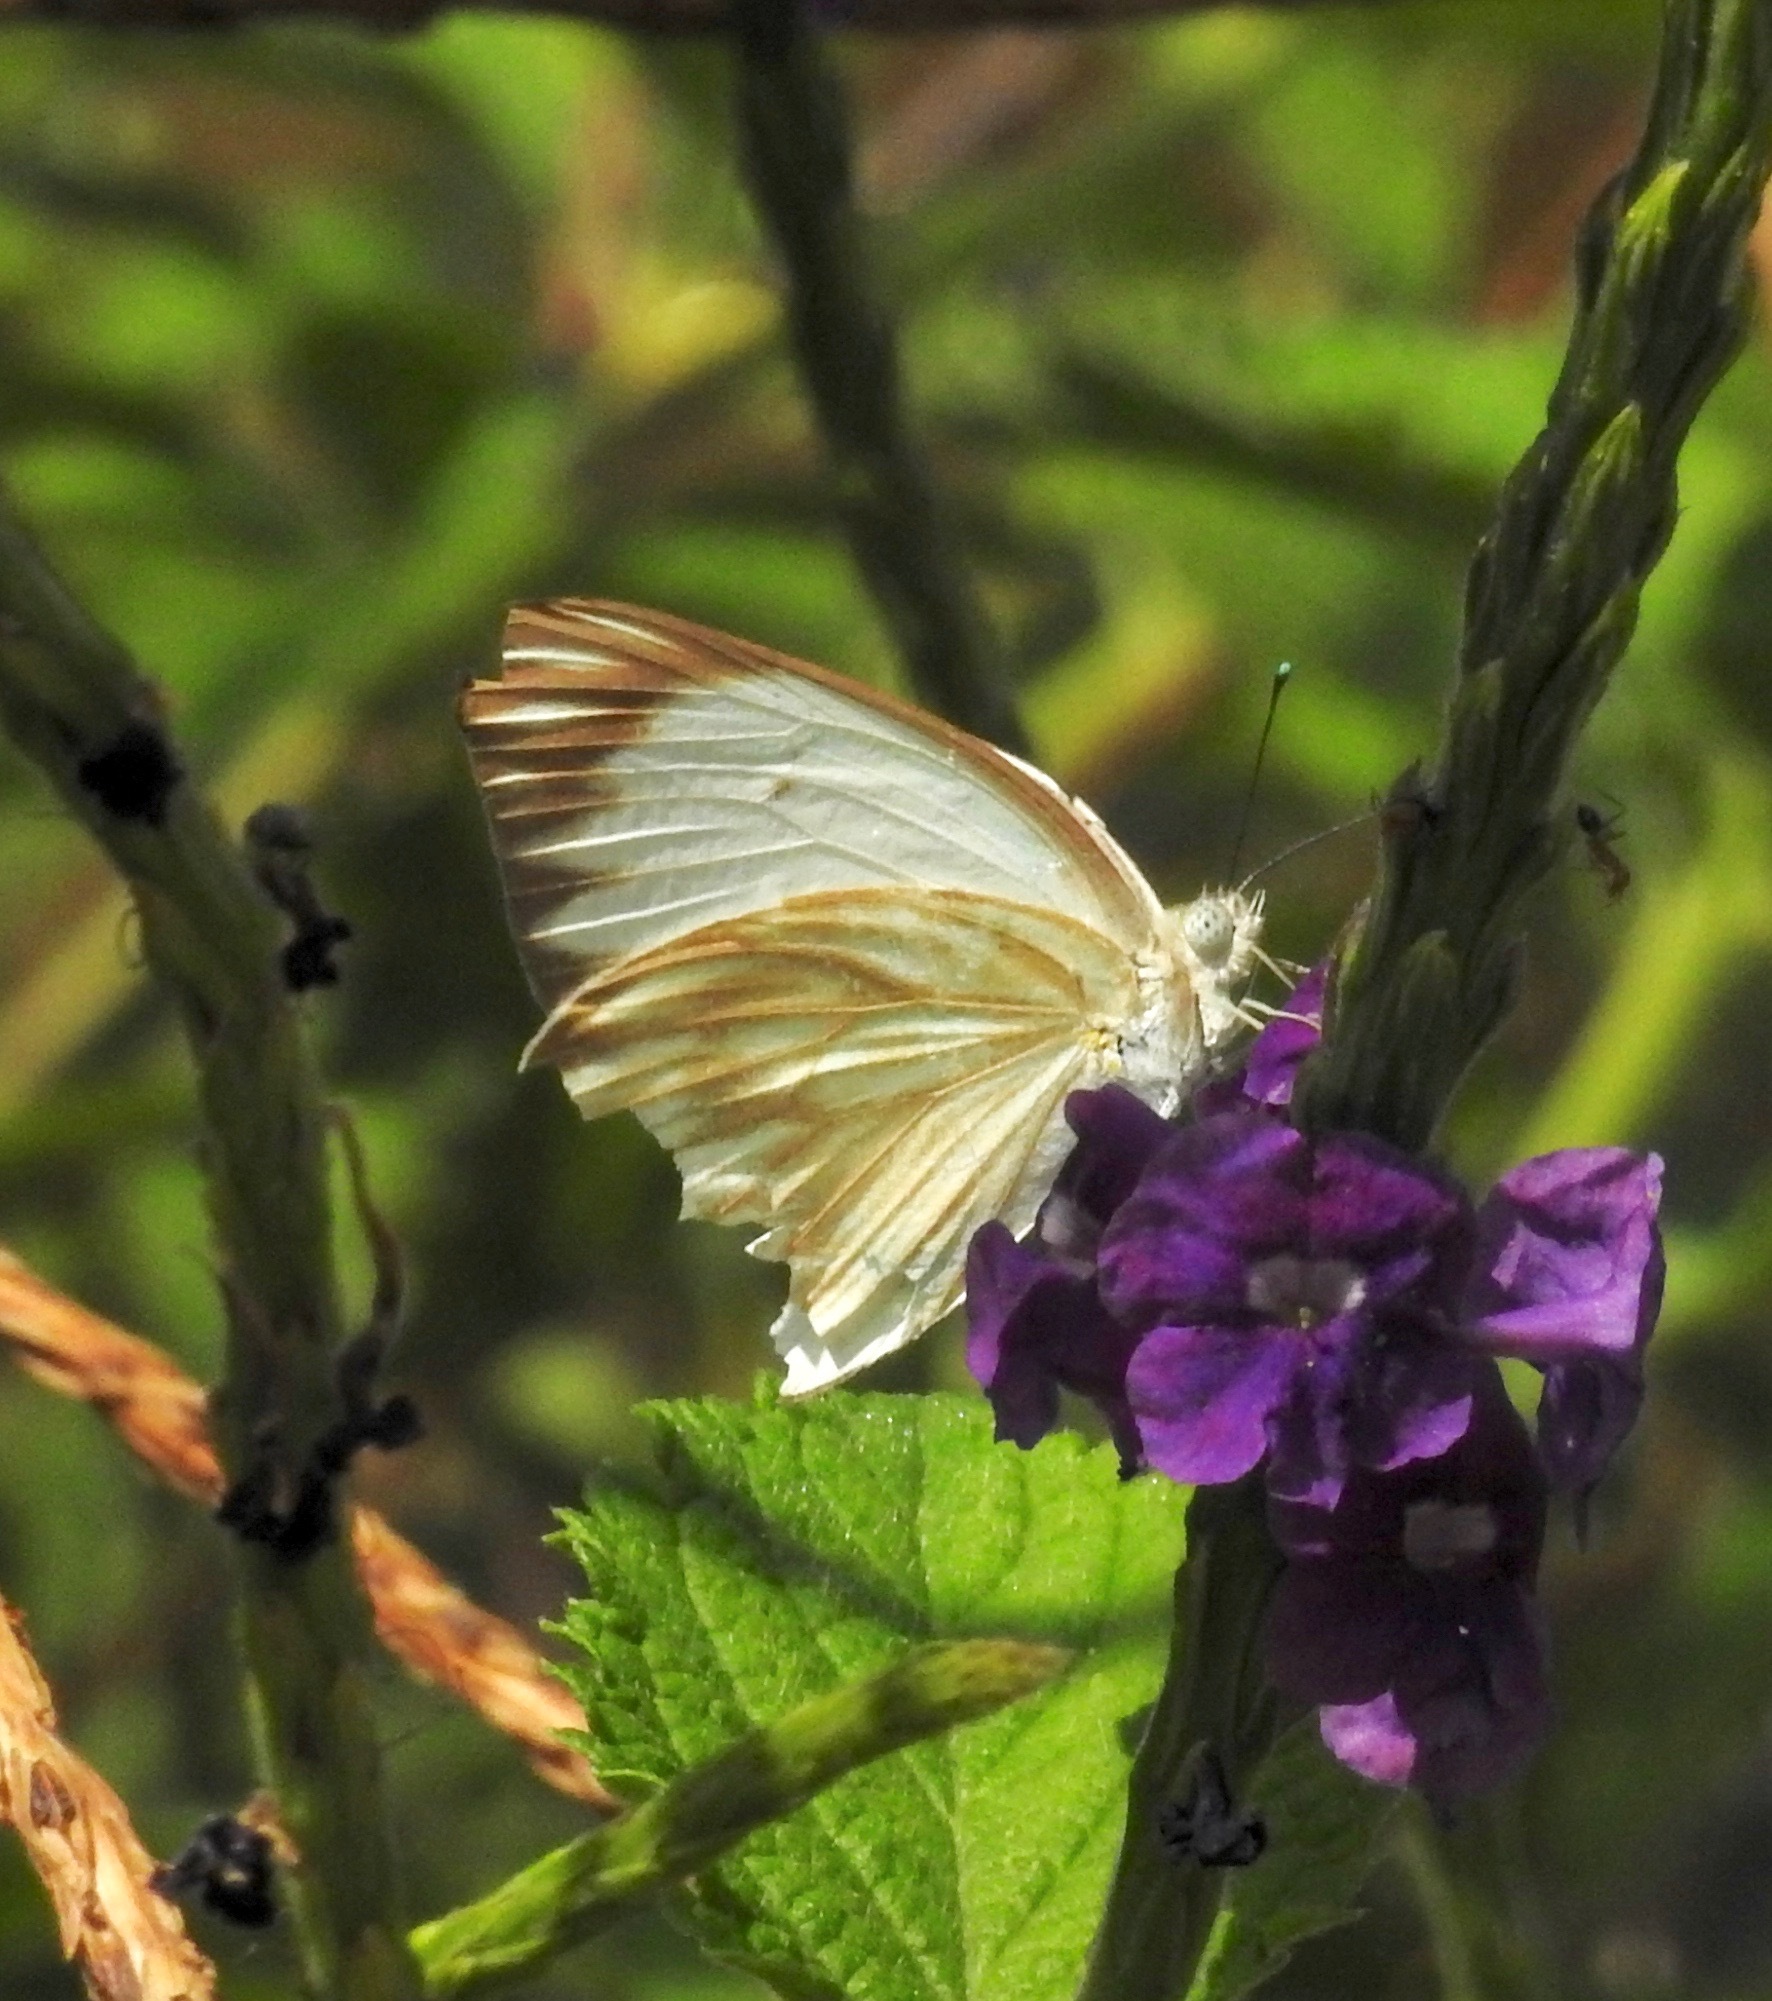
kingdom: Animalia
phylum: Arthropoda
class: Insecta
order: Lepidoptera
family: Pieridae
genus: Ascia
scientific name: Ascia monuste
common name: Great southern white
